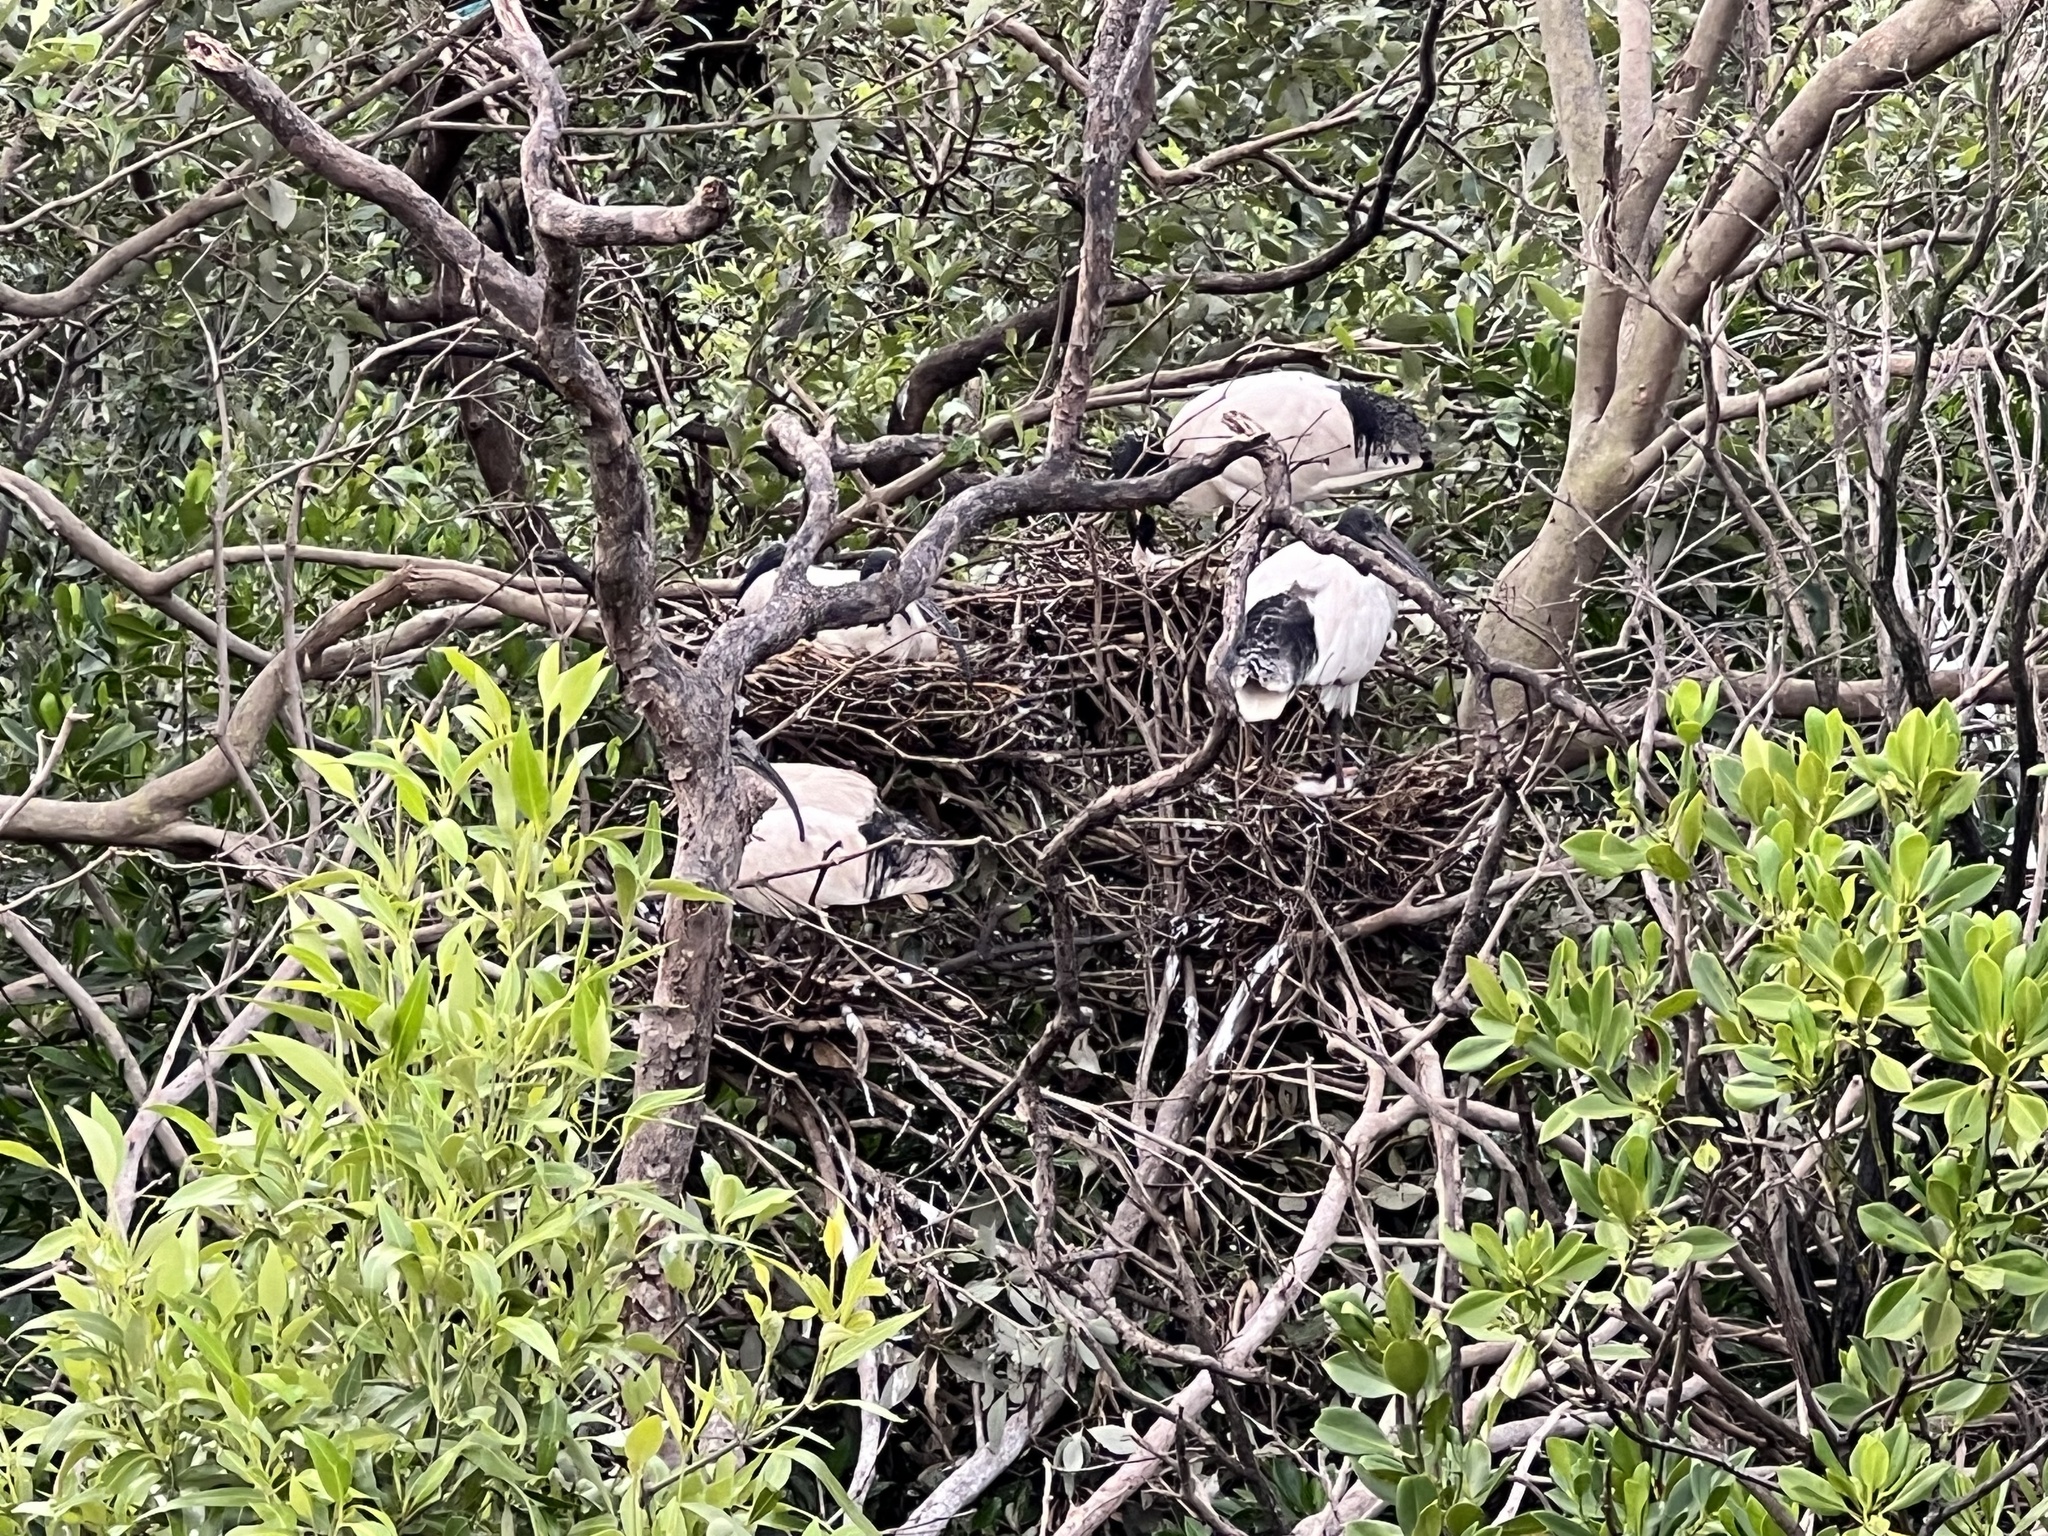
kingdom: Animalia
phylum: Chordata
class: Aves
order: Pelecaniformes
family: Threskiornithidae
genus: Threskiornis
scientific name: Threskiornis molucca
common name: Australian white ibis
